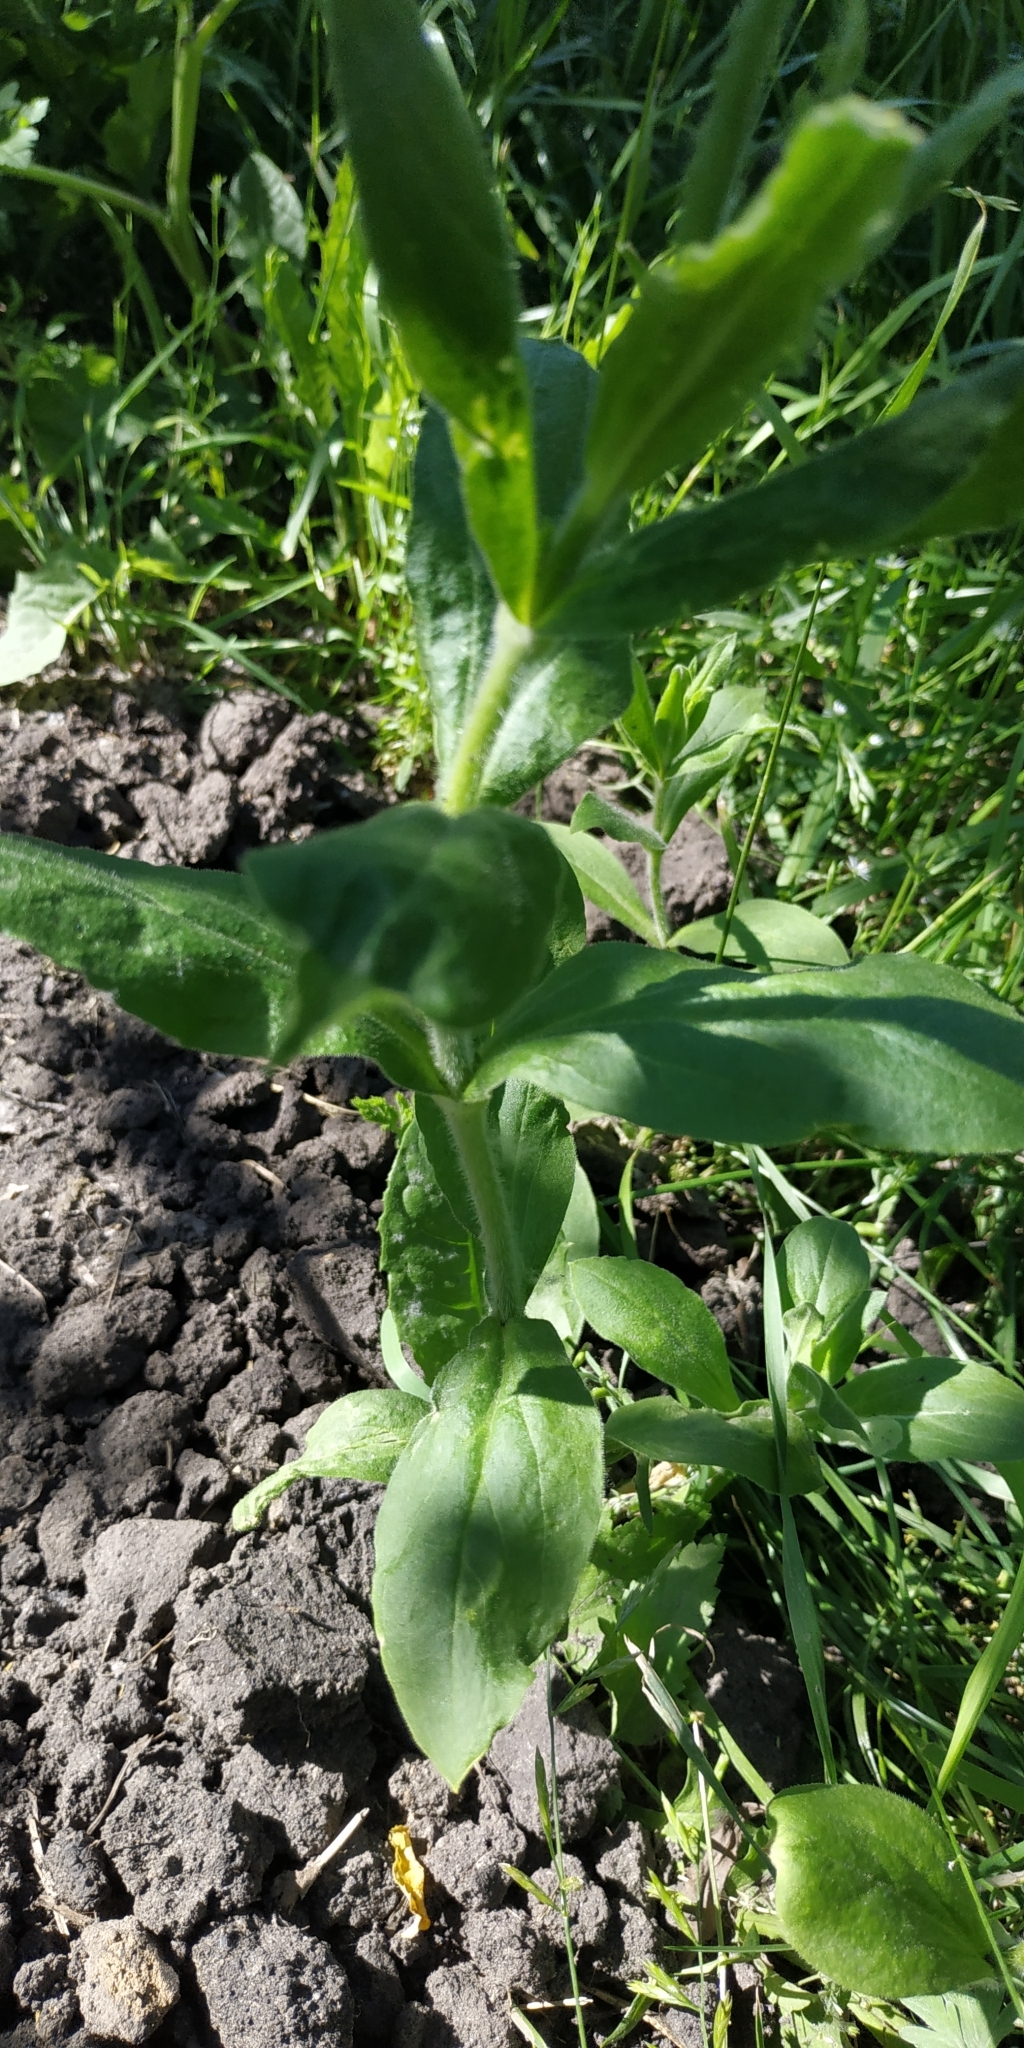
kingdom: Plantae
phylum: Tracheophyta
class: Magnoliopsida
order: Caryophyllales
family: Caryophyllaceae
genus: Silene
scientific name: Silene latifolia
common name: White campion
